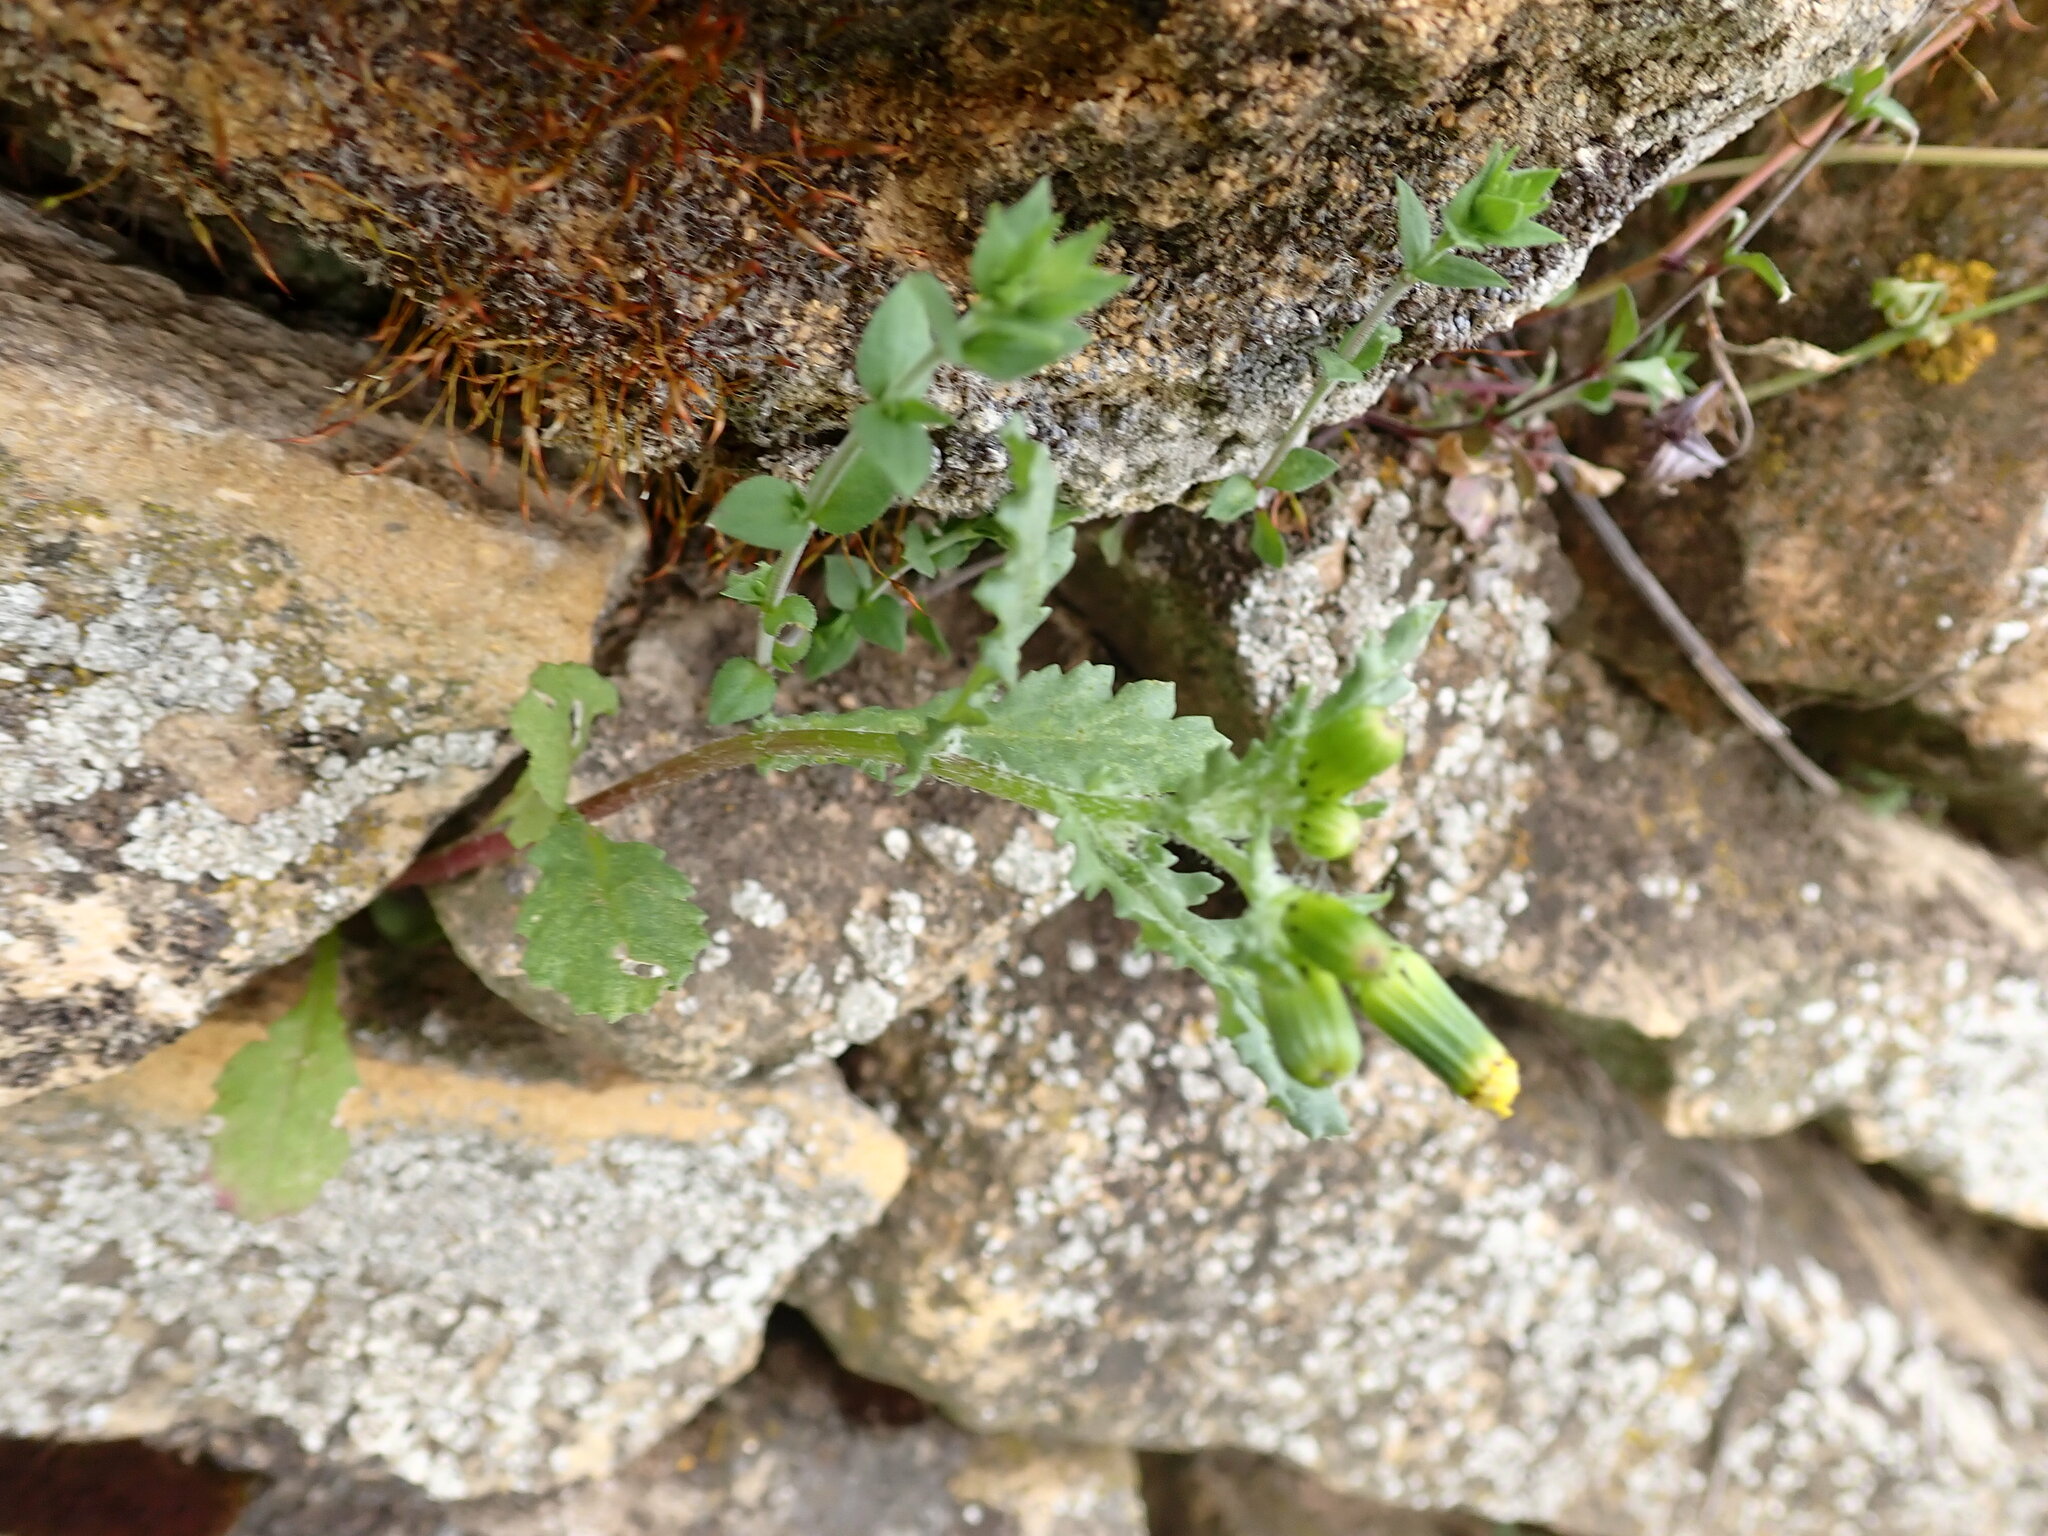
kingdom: Plantae
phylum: Tracheophyta
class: Magnoliopsida
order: Asterales
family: Asteraceae
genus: Senecio
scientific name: Senecio vulgaris
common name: Old-man-in-the-spring
